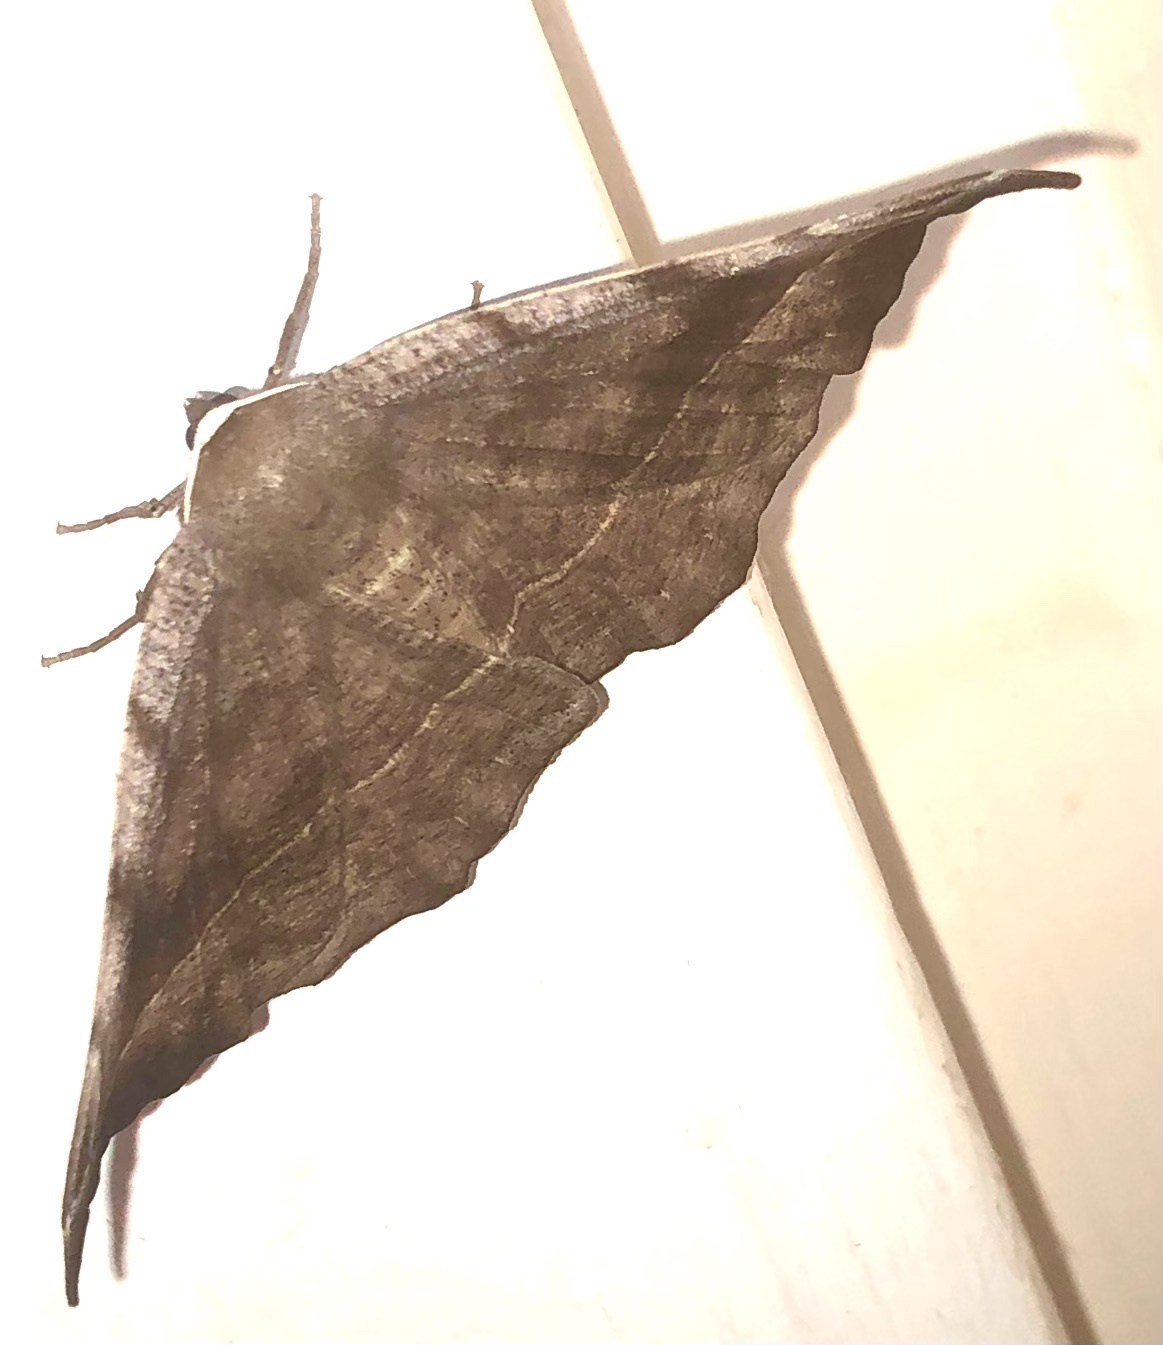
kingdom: Animalia
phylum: Arthropoda
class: Insecta
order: Lepidoptera
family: Geometridae
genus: Eutrapela
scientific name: Eutrapela clemataria
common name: Curved-toothed geometer
